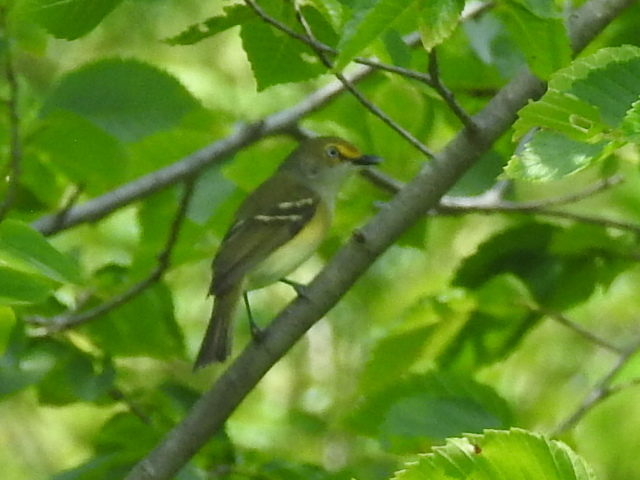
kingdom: Animalia
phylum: Chordata
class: Aves
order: Passeriformes
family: Vireonidae
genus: Vireo
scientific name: Vireo griseus
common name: White-eyed vireo
